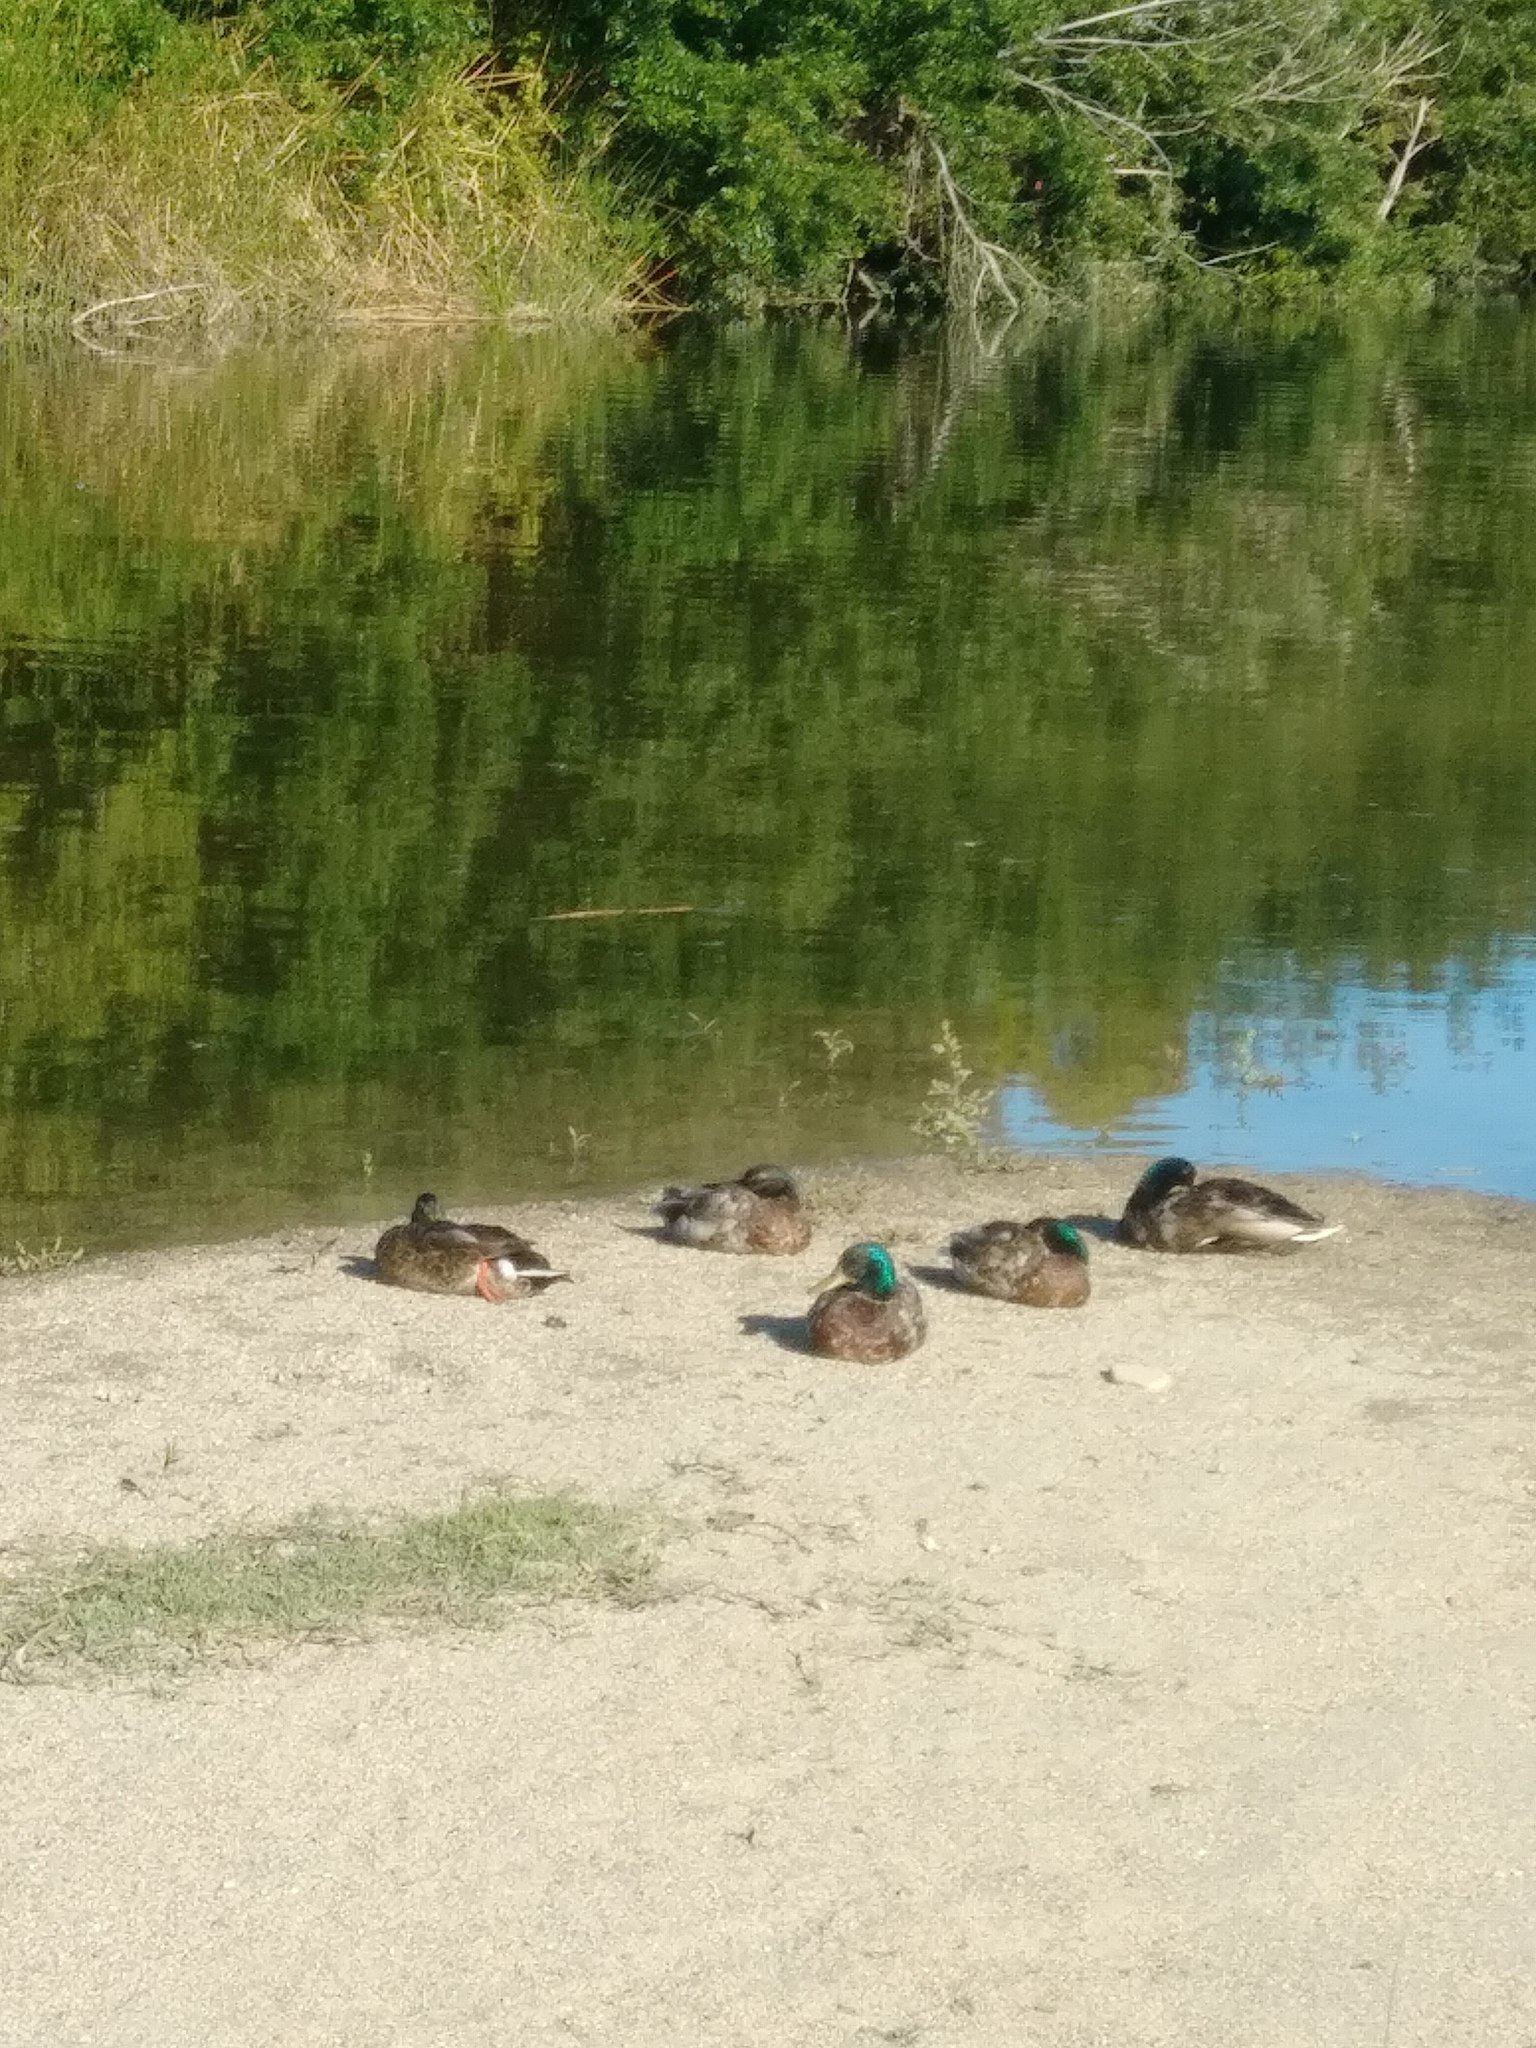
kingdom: Animalia
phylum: Chordata
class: Aves
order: Anseriformes
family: Anatidae
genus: Anas
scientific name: Anas platyrhynchos
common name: Mallard
